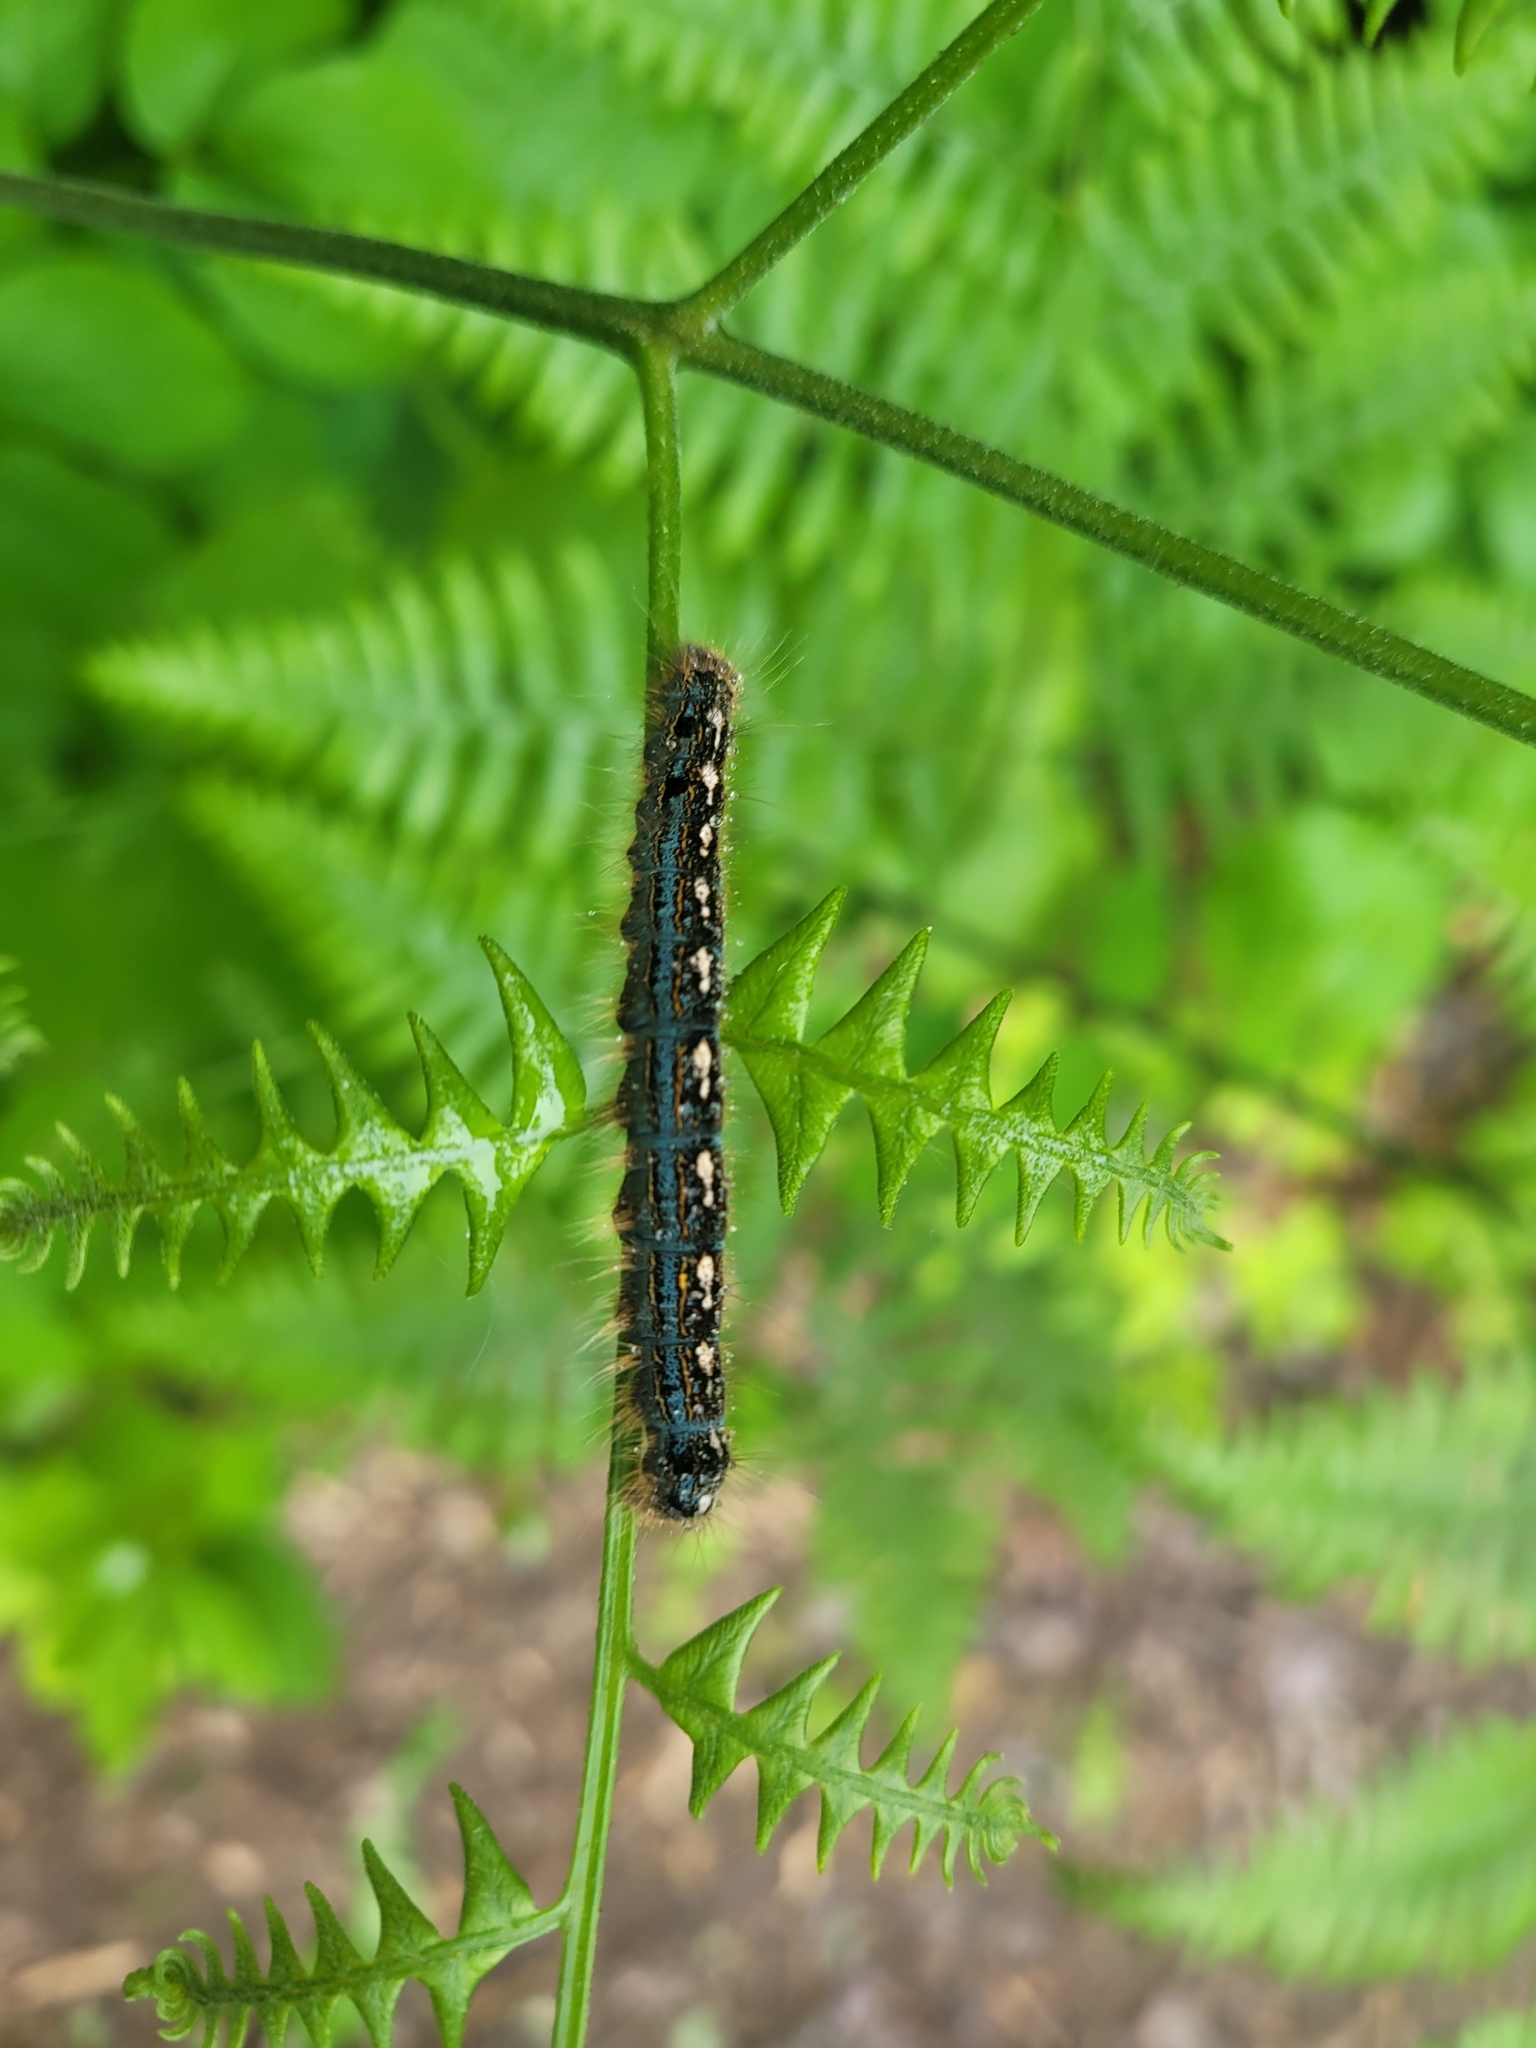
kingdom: Animalia
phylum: Arthropoda
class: Insecta
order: Lepidoptera
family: Lasiocampidae
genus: Malacosoma
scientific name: Malacosoma disstria
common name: Forest tent caterpillar
